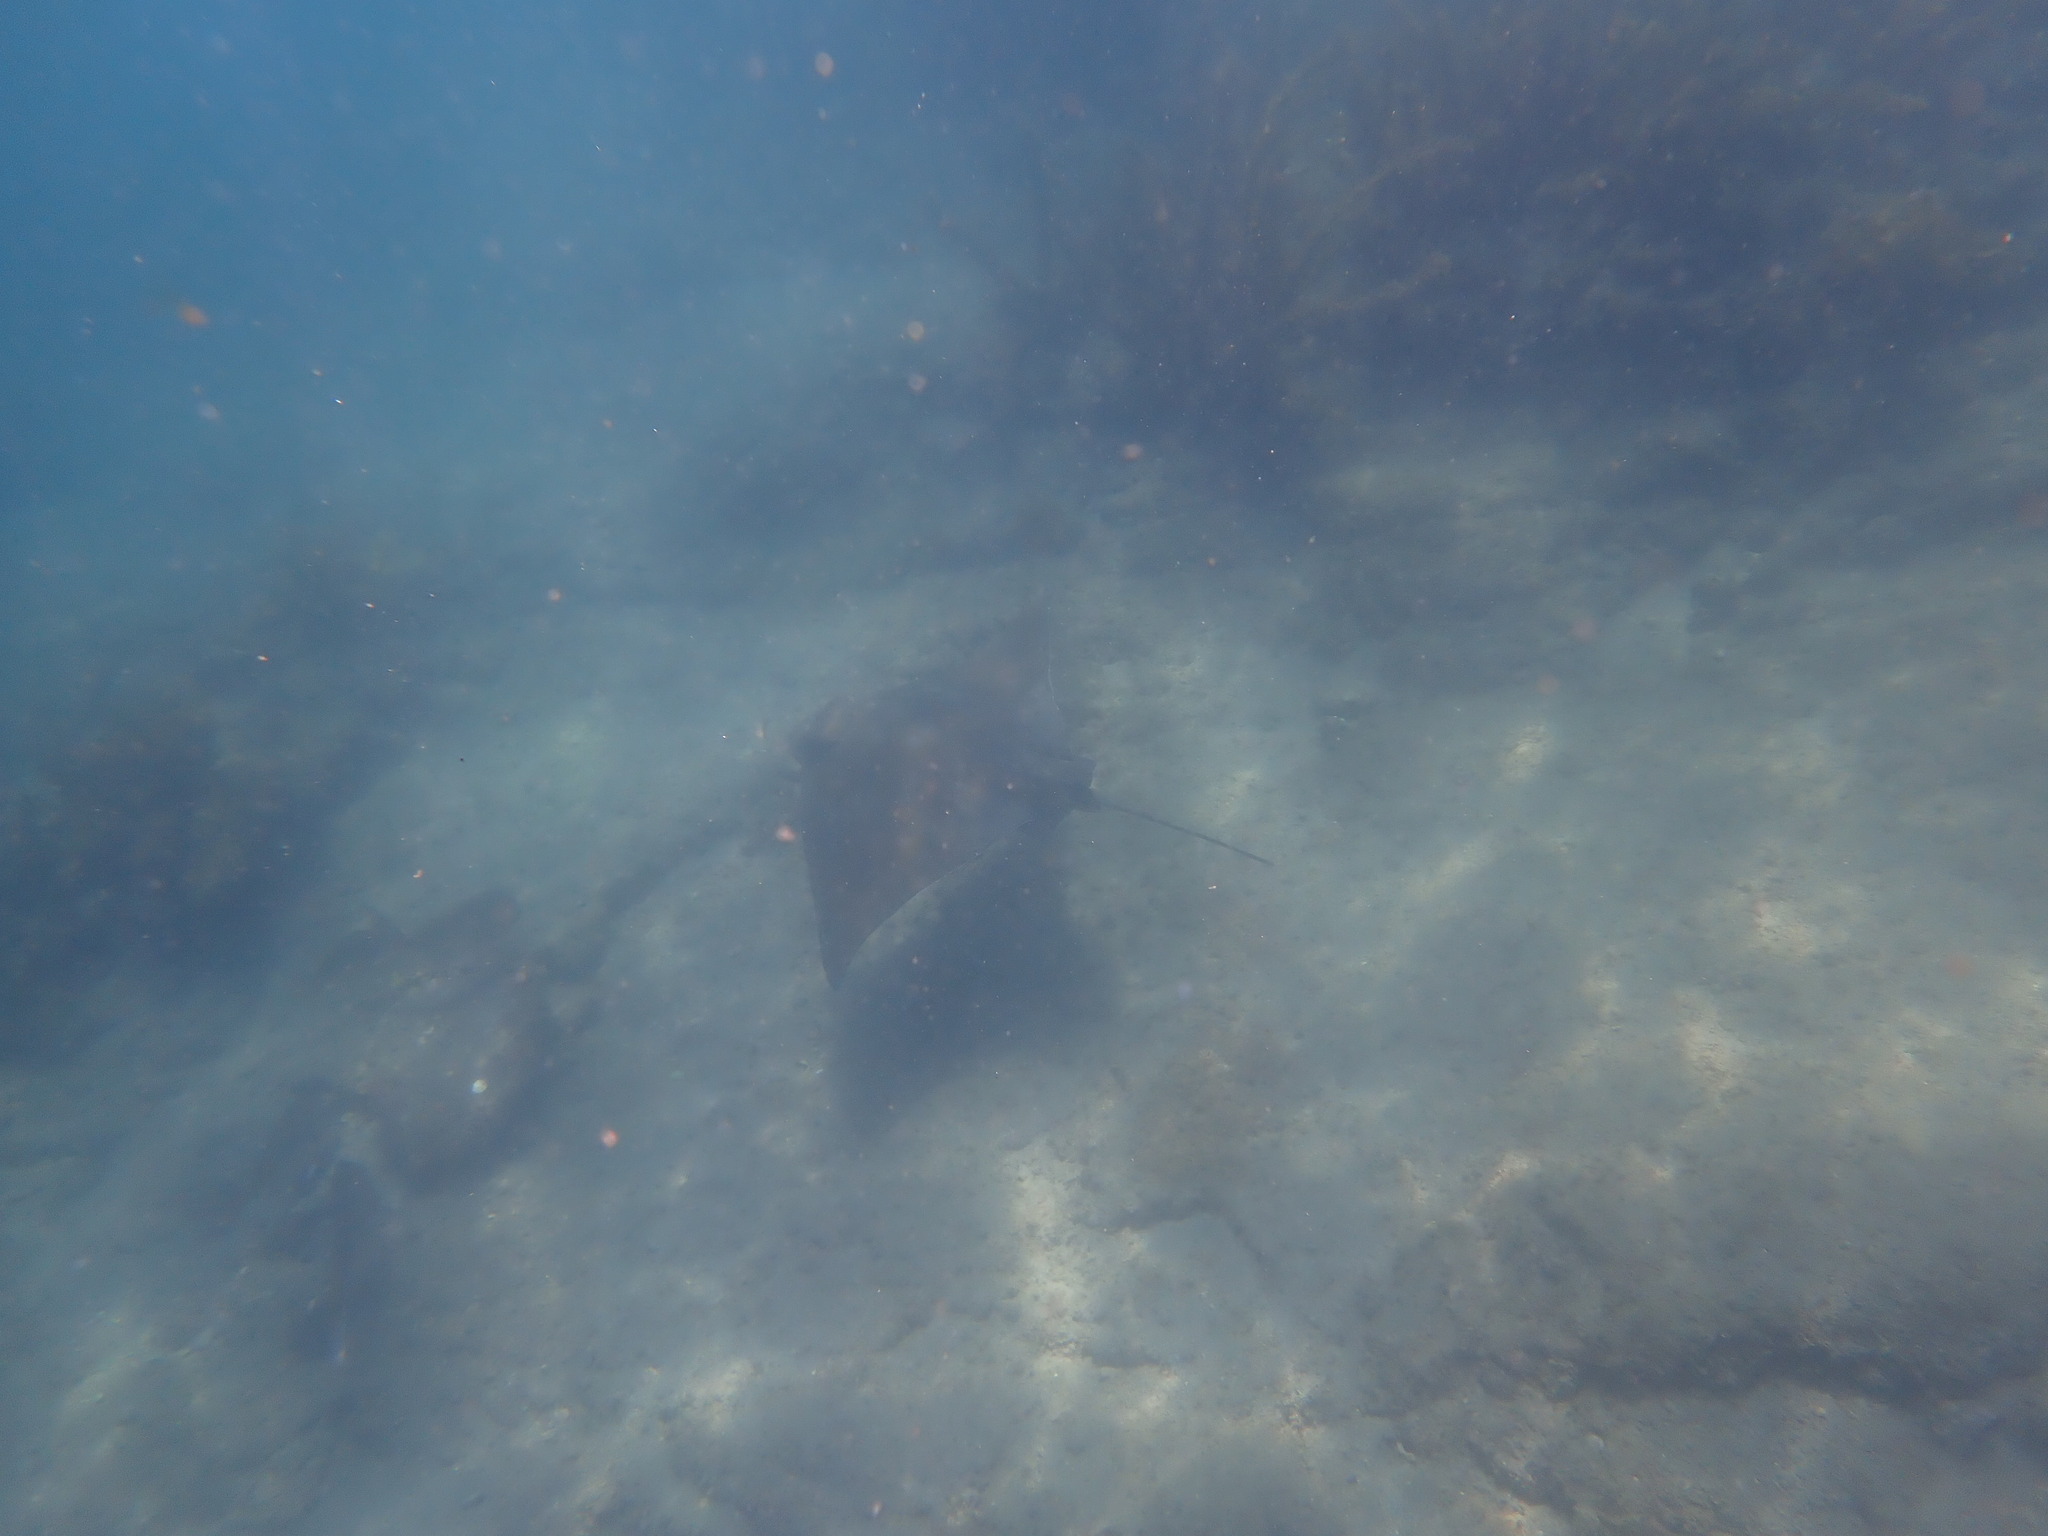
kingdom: Animalia
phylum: Chordata
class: Elasmobranchii
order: Myliobatiformes
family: Myliobatidae
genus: Myliobatis
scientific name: Myliobatis tenuicaudatus
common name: Eagle ray
